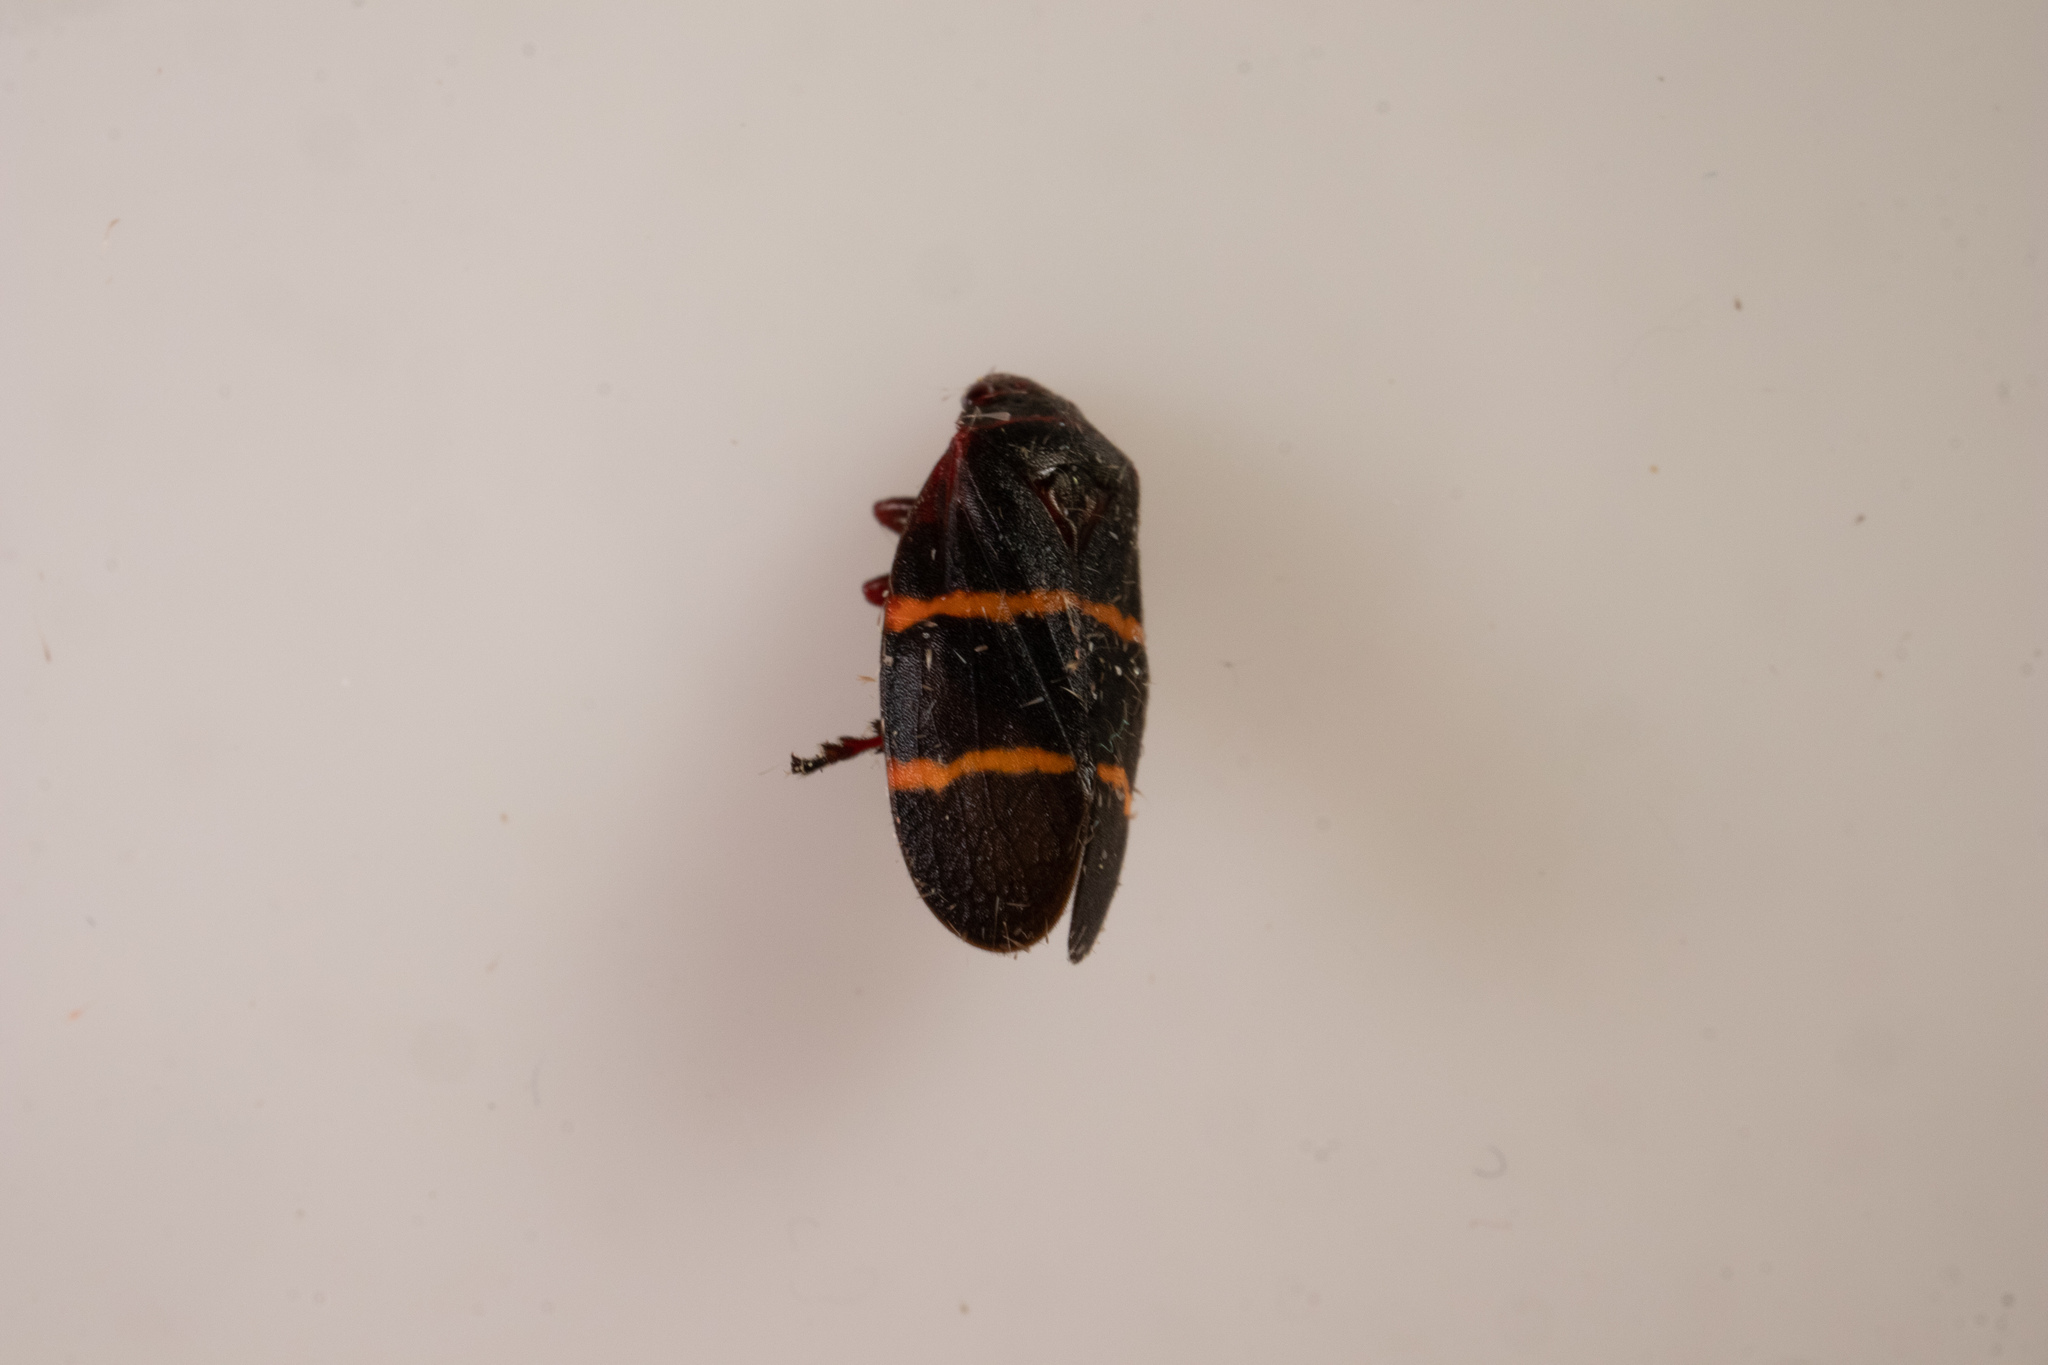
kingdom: Animalia
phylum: Arthropoda
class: Insecta
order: Hemiptera
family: Cercopidae
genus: Prosapia
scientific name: Prosapia bicincta
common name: Twolined spittlebug
